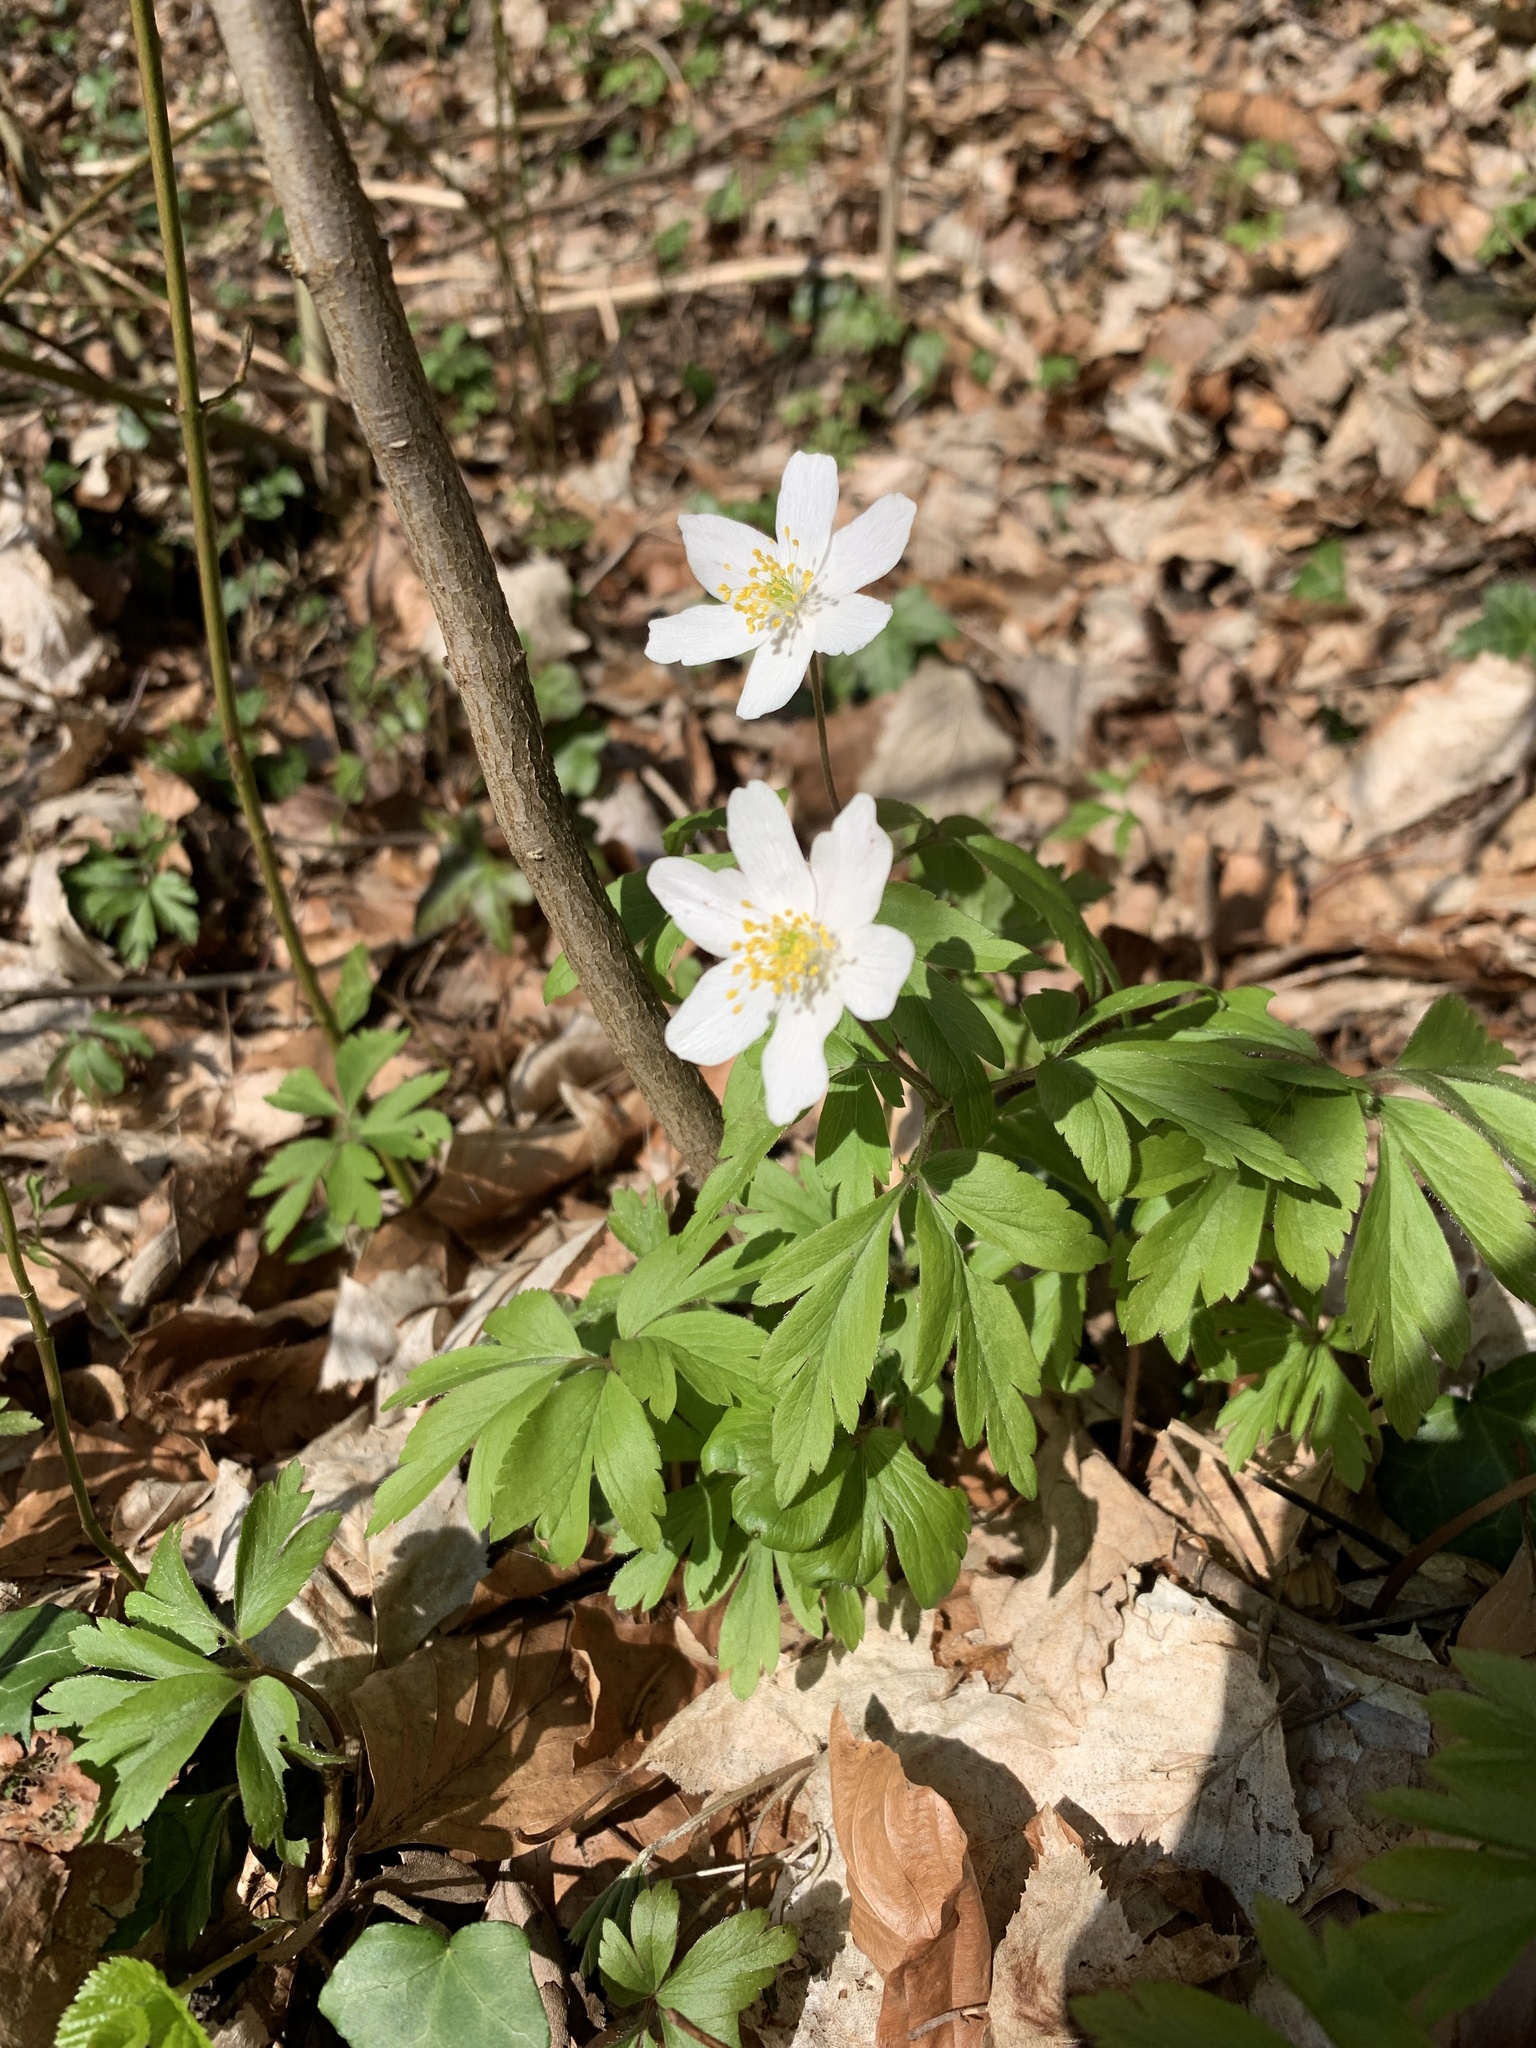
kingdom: Plantae
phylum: Tracheophyta
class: Magnoliopsida
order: Ranunculales
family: Ranunculaceae
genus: Anemone
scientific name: Anemone nemorosa
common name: Wood anemone
